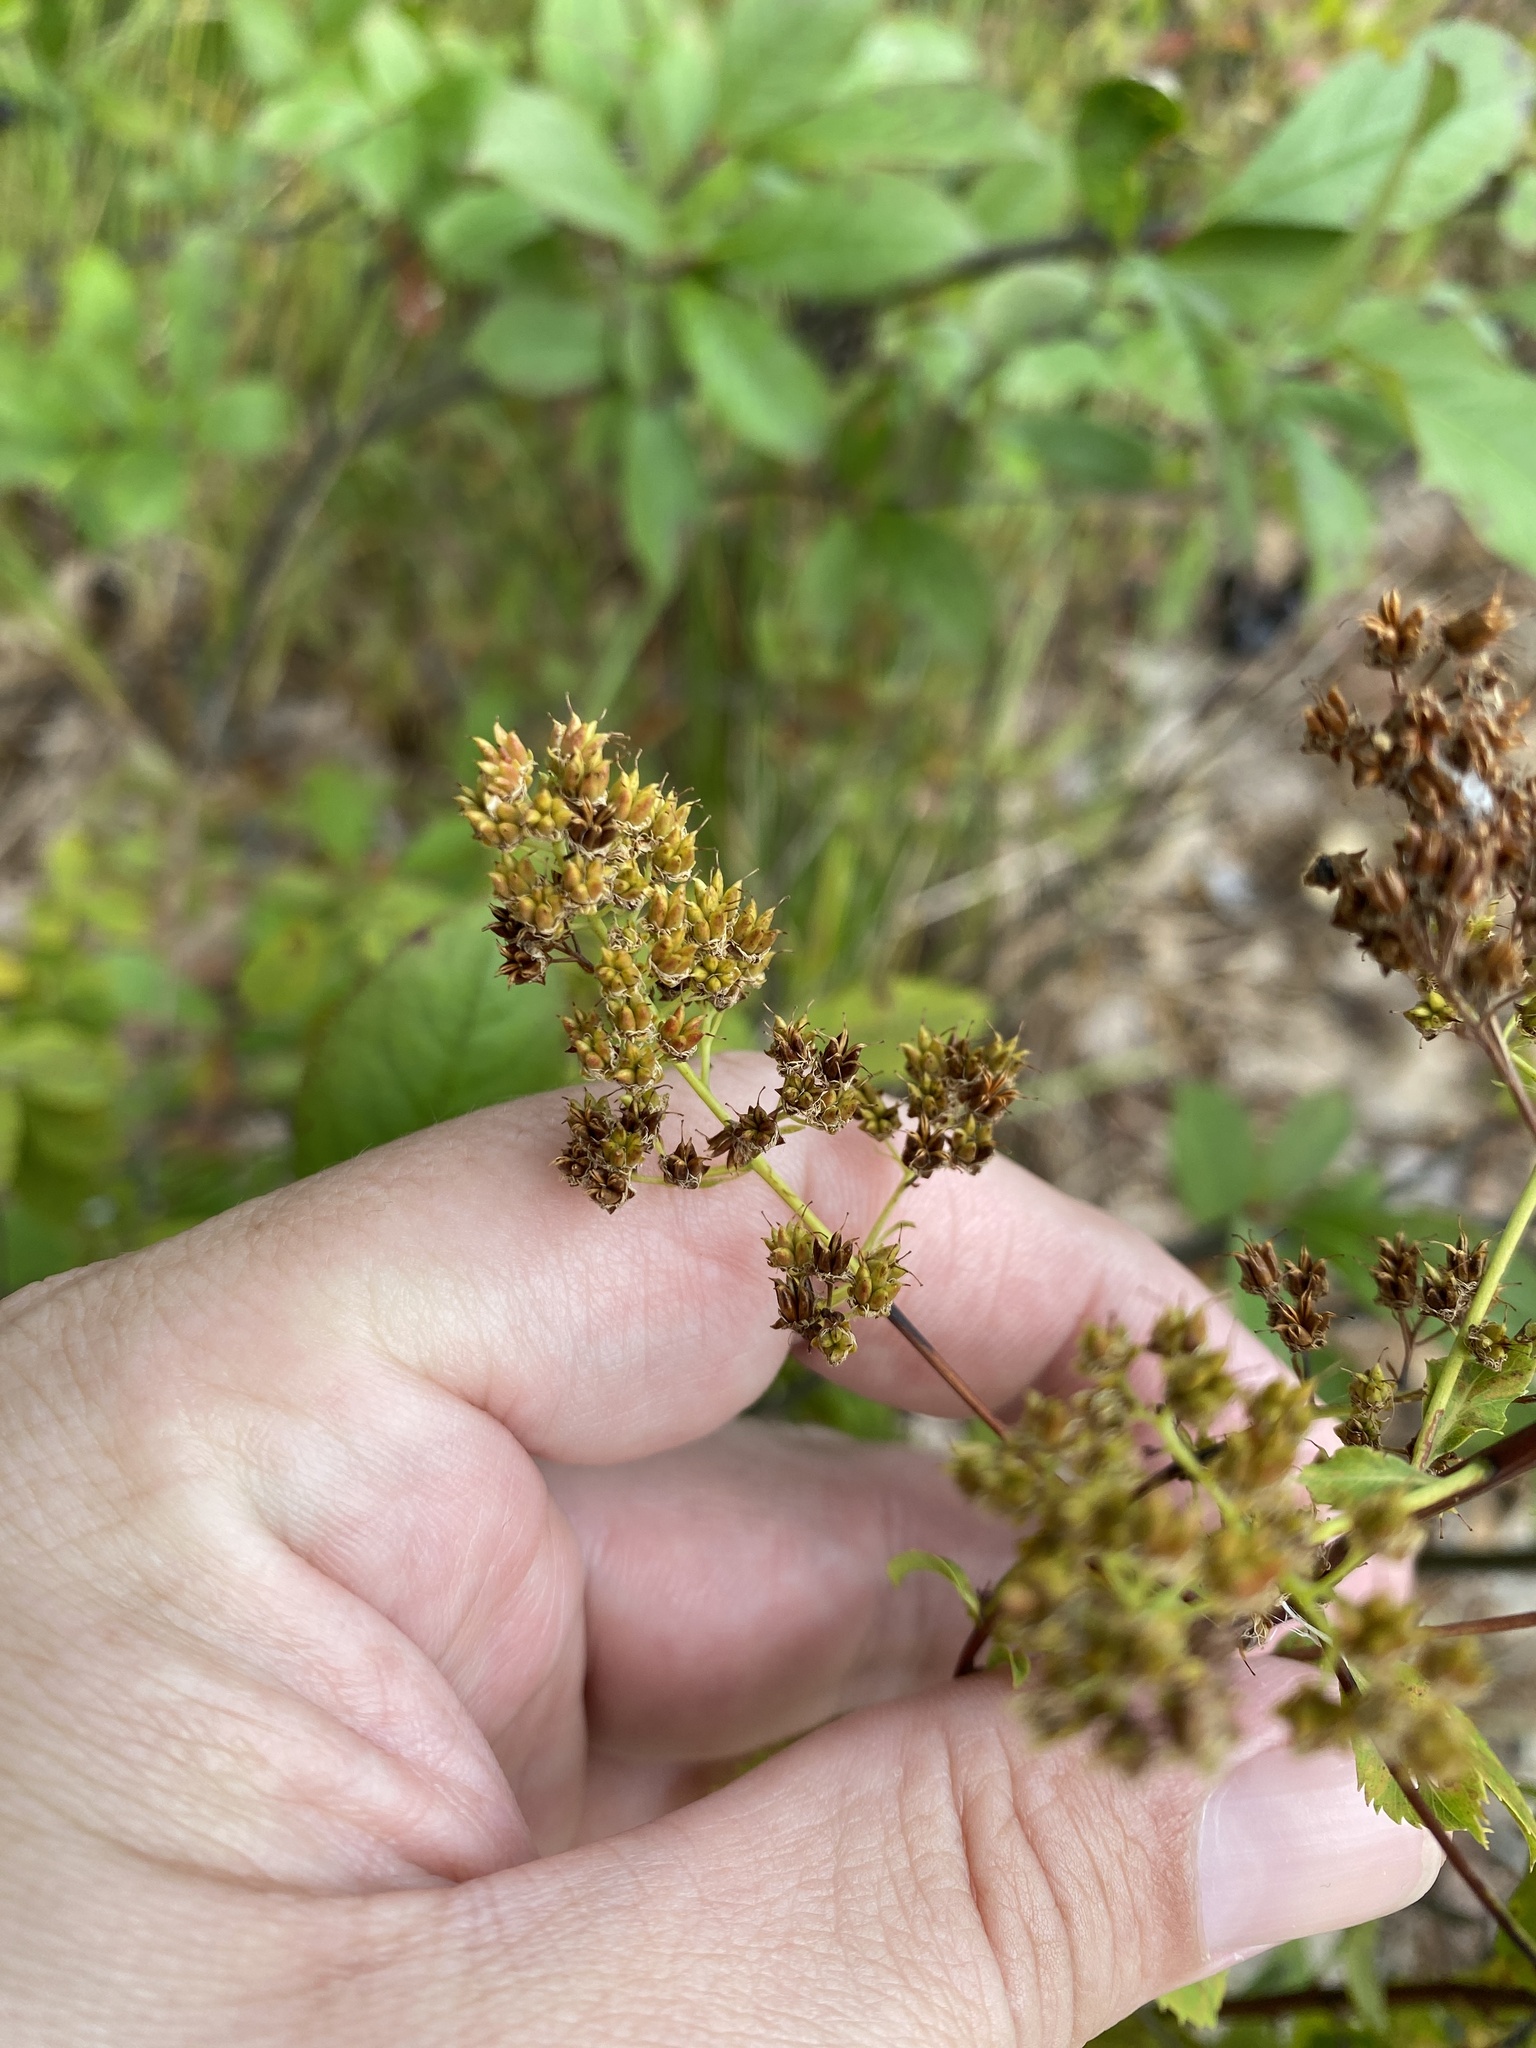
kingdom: Plantae
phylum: Tracheophyta
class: Magnoliopsida
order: Rosales
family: Rosaceae
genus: Spiraea
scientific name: Spiraea alba
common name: Pale bridewort
